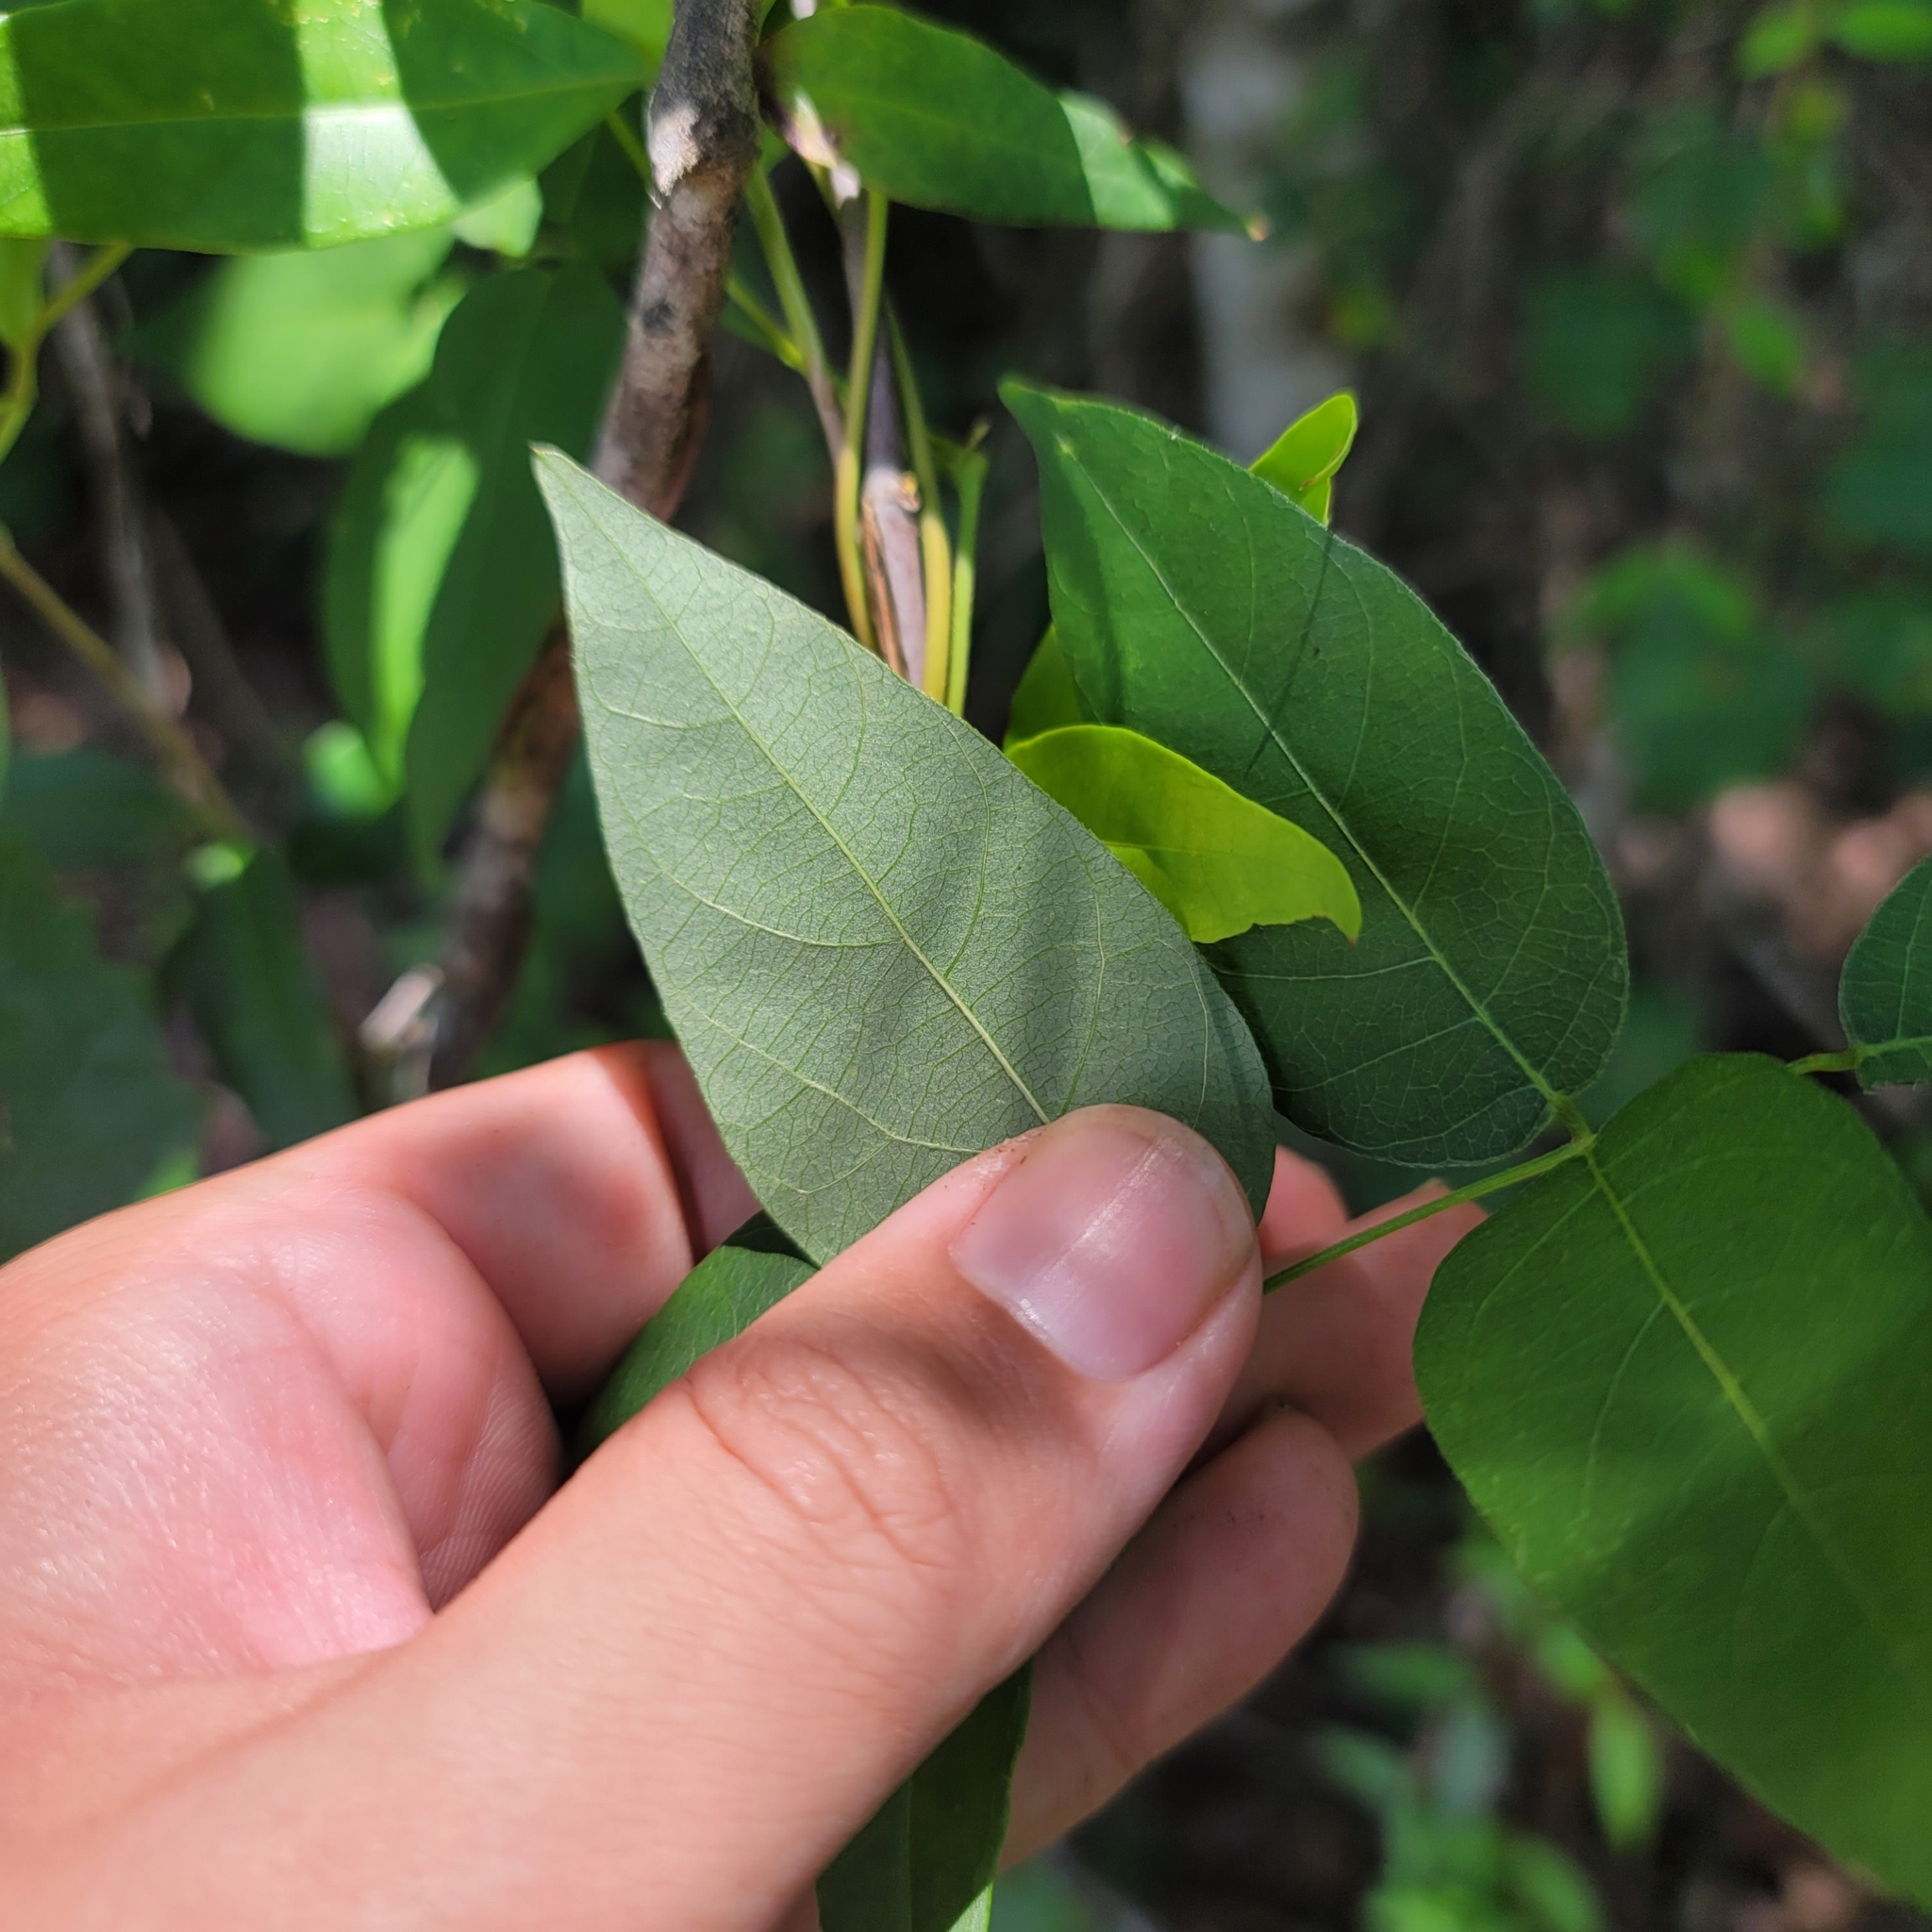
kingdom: Plantae
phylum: Tracheophyta
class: Magnoliopsida
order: Fabales
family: Fabaceae
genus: Apios
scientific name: Apios americana
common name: American potato-bean
